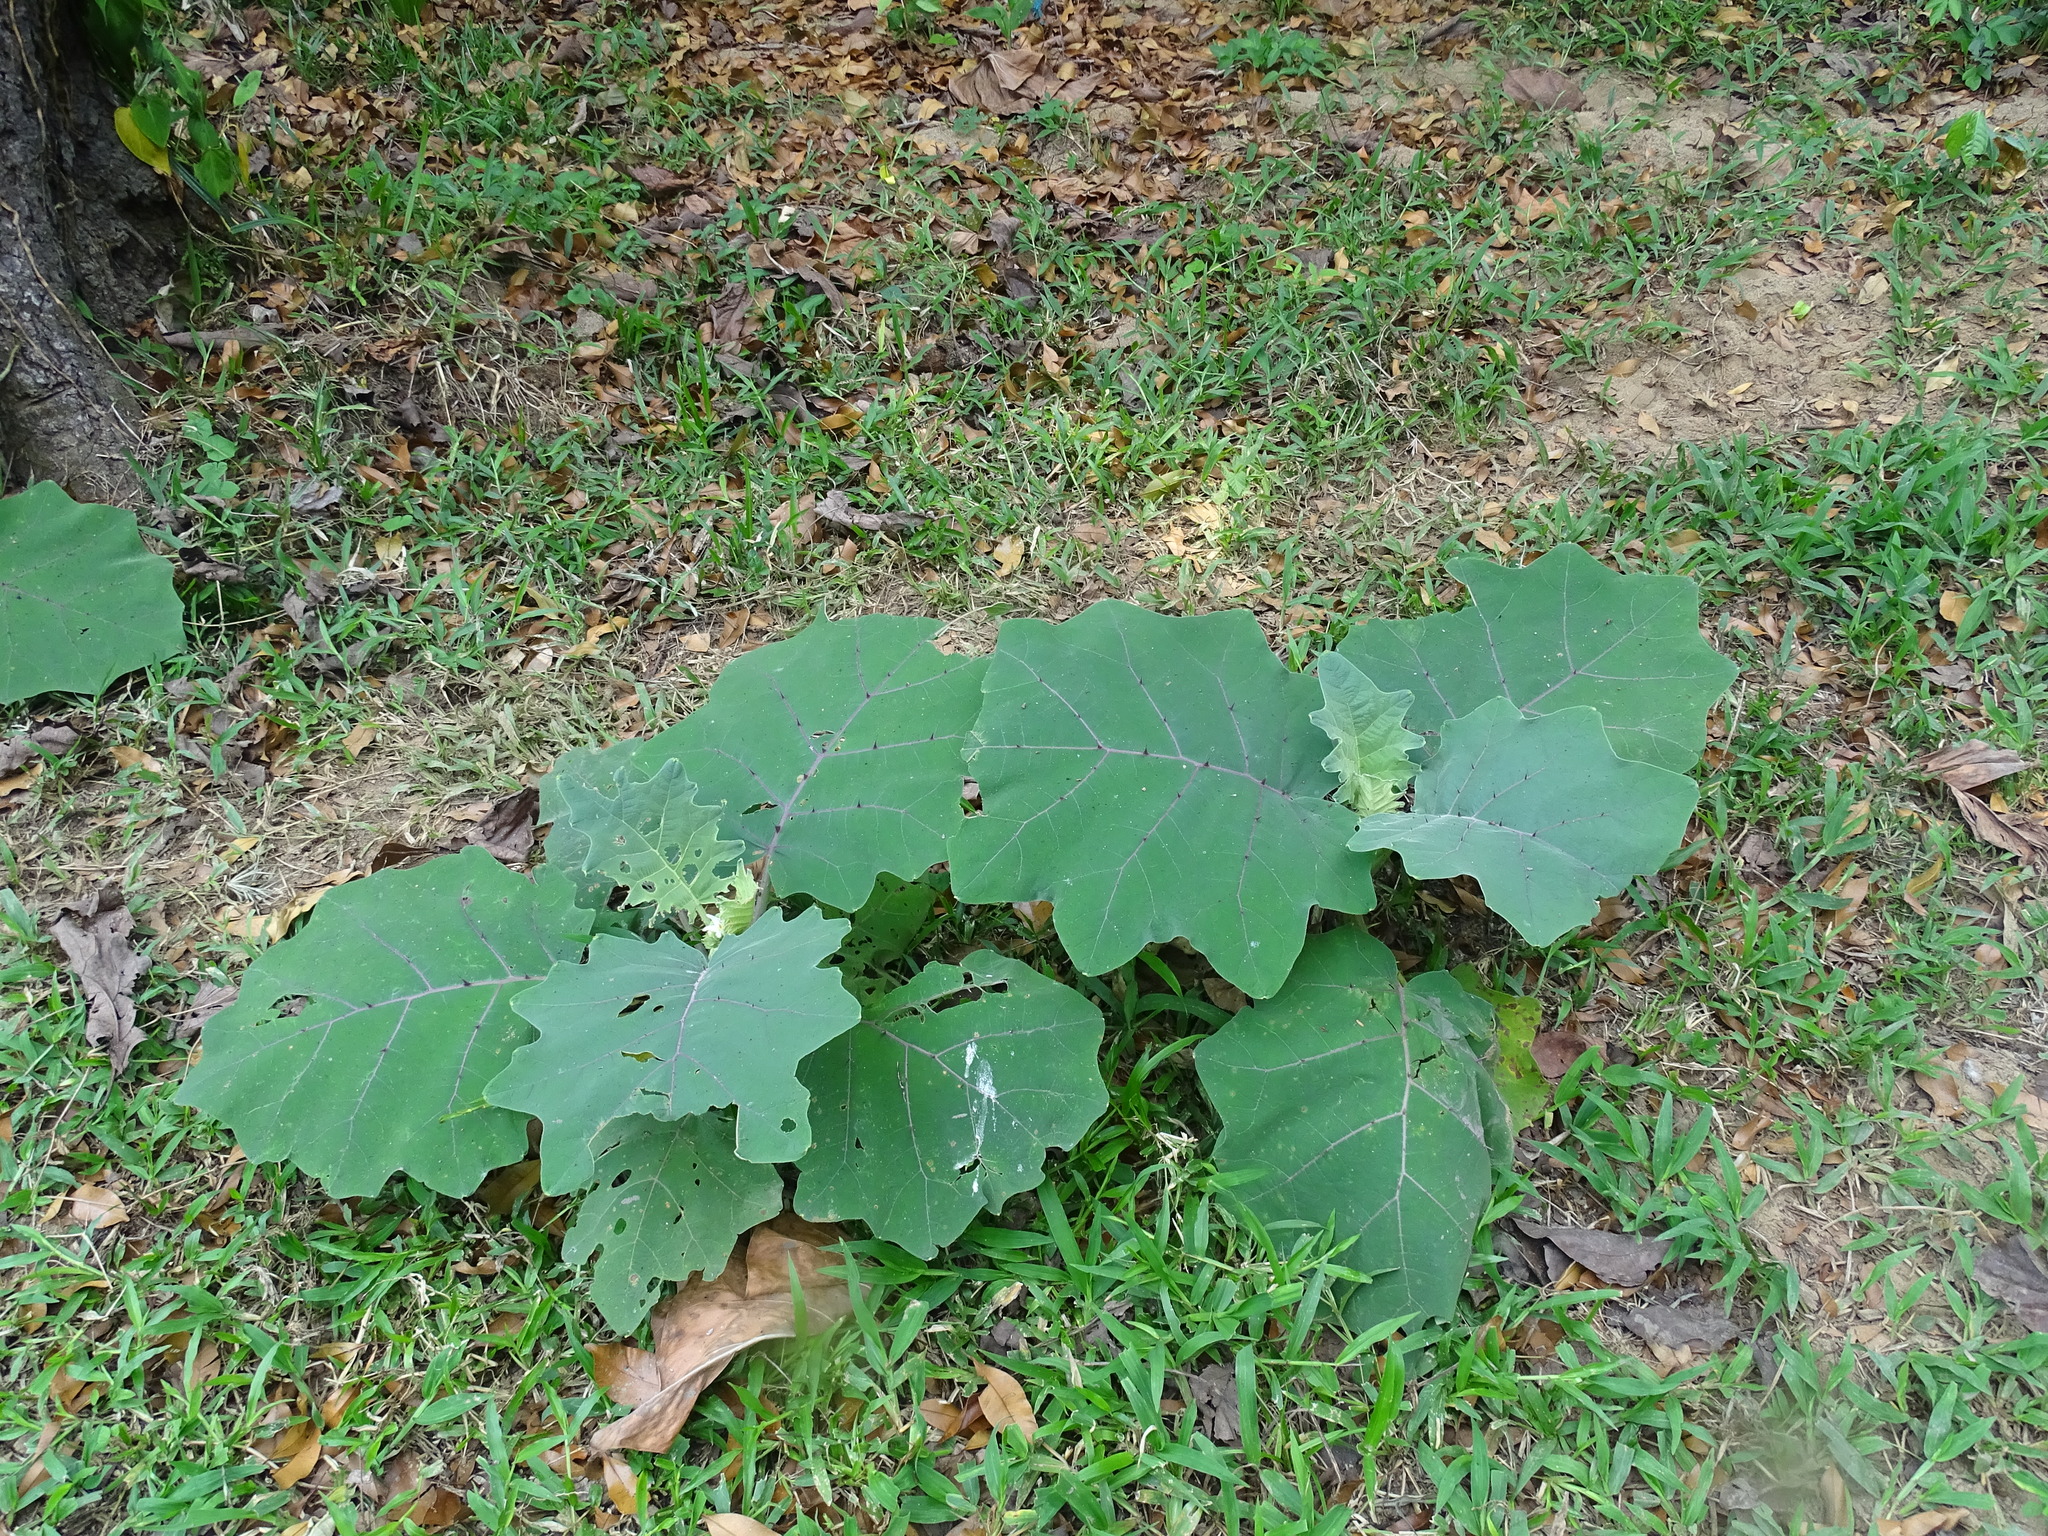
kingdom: Plantae
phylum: Tracheophyta
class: Magnoliopsida
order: Solanales
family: Solanaceae
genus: Solanum
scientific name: Solanum candidum
